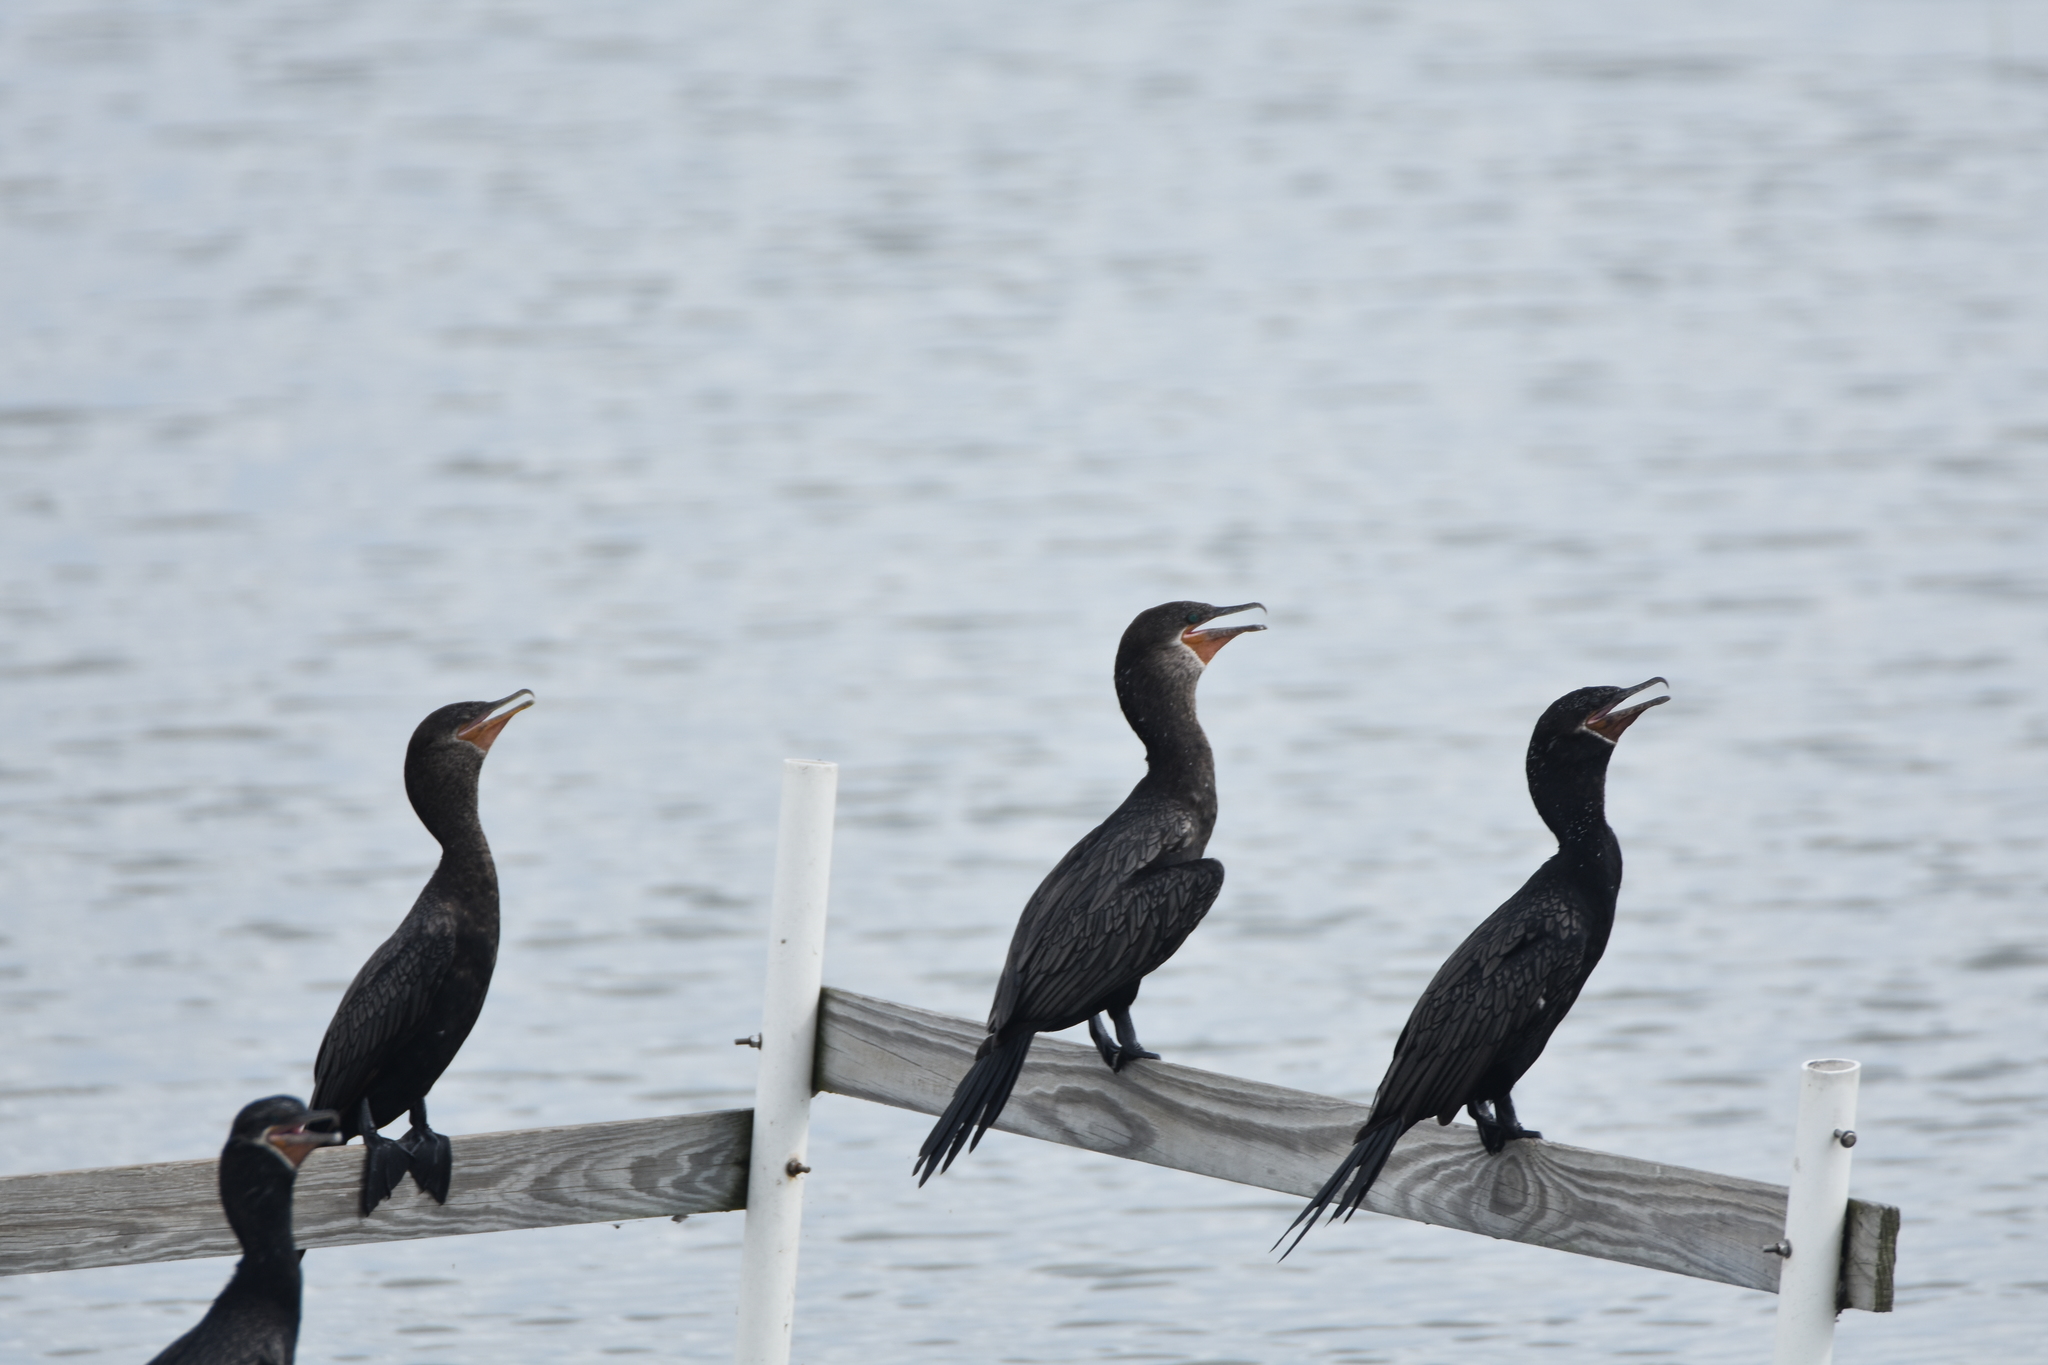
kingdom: Animalia
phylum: Chordata
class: Aves
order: Suliformes
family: Phalacrocoracidae
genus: Phalacrocorax
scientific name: Phalacrocorax brasilianus
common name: Neotropic cormorant
